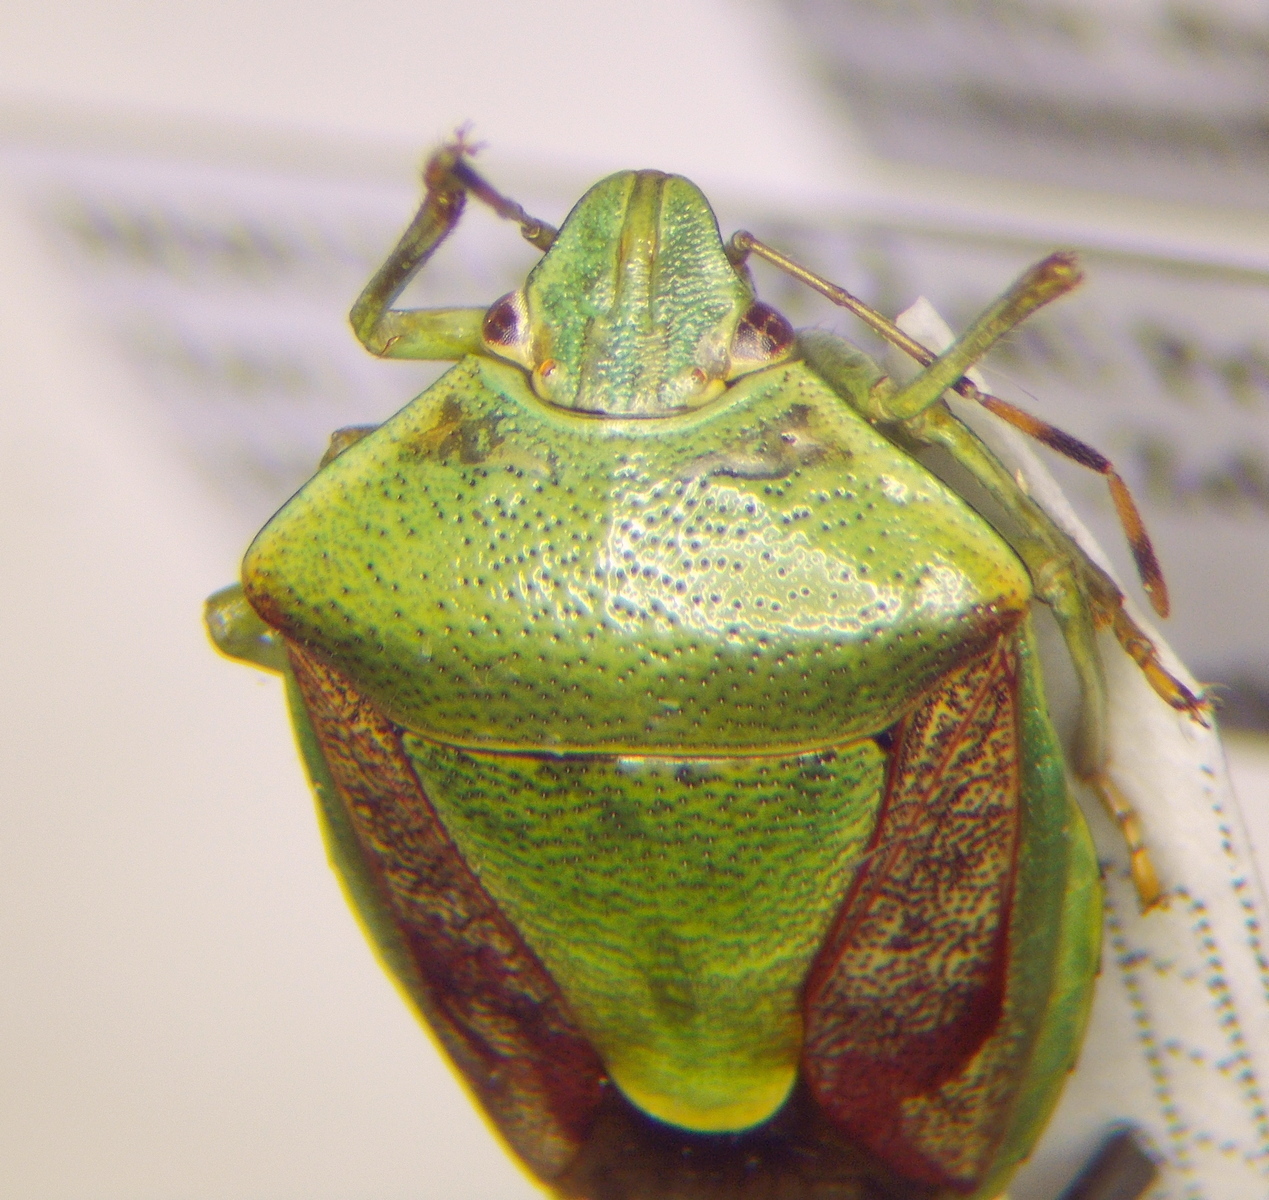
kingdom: Animalia
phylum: Arthropoda
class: Insecta
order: Hemiptera
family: Pentatomidae
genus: Plautia
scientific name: Plautia stali
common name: Stink bug
